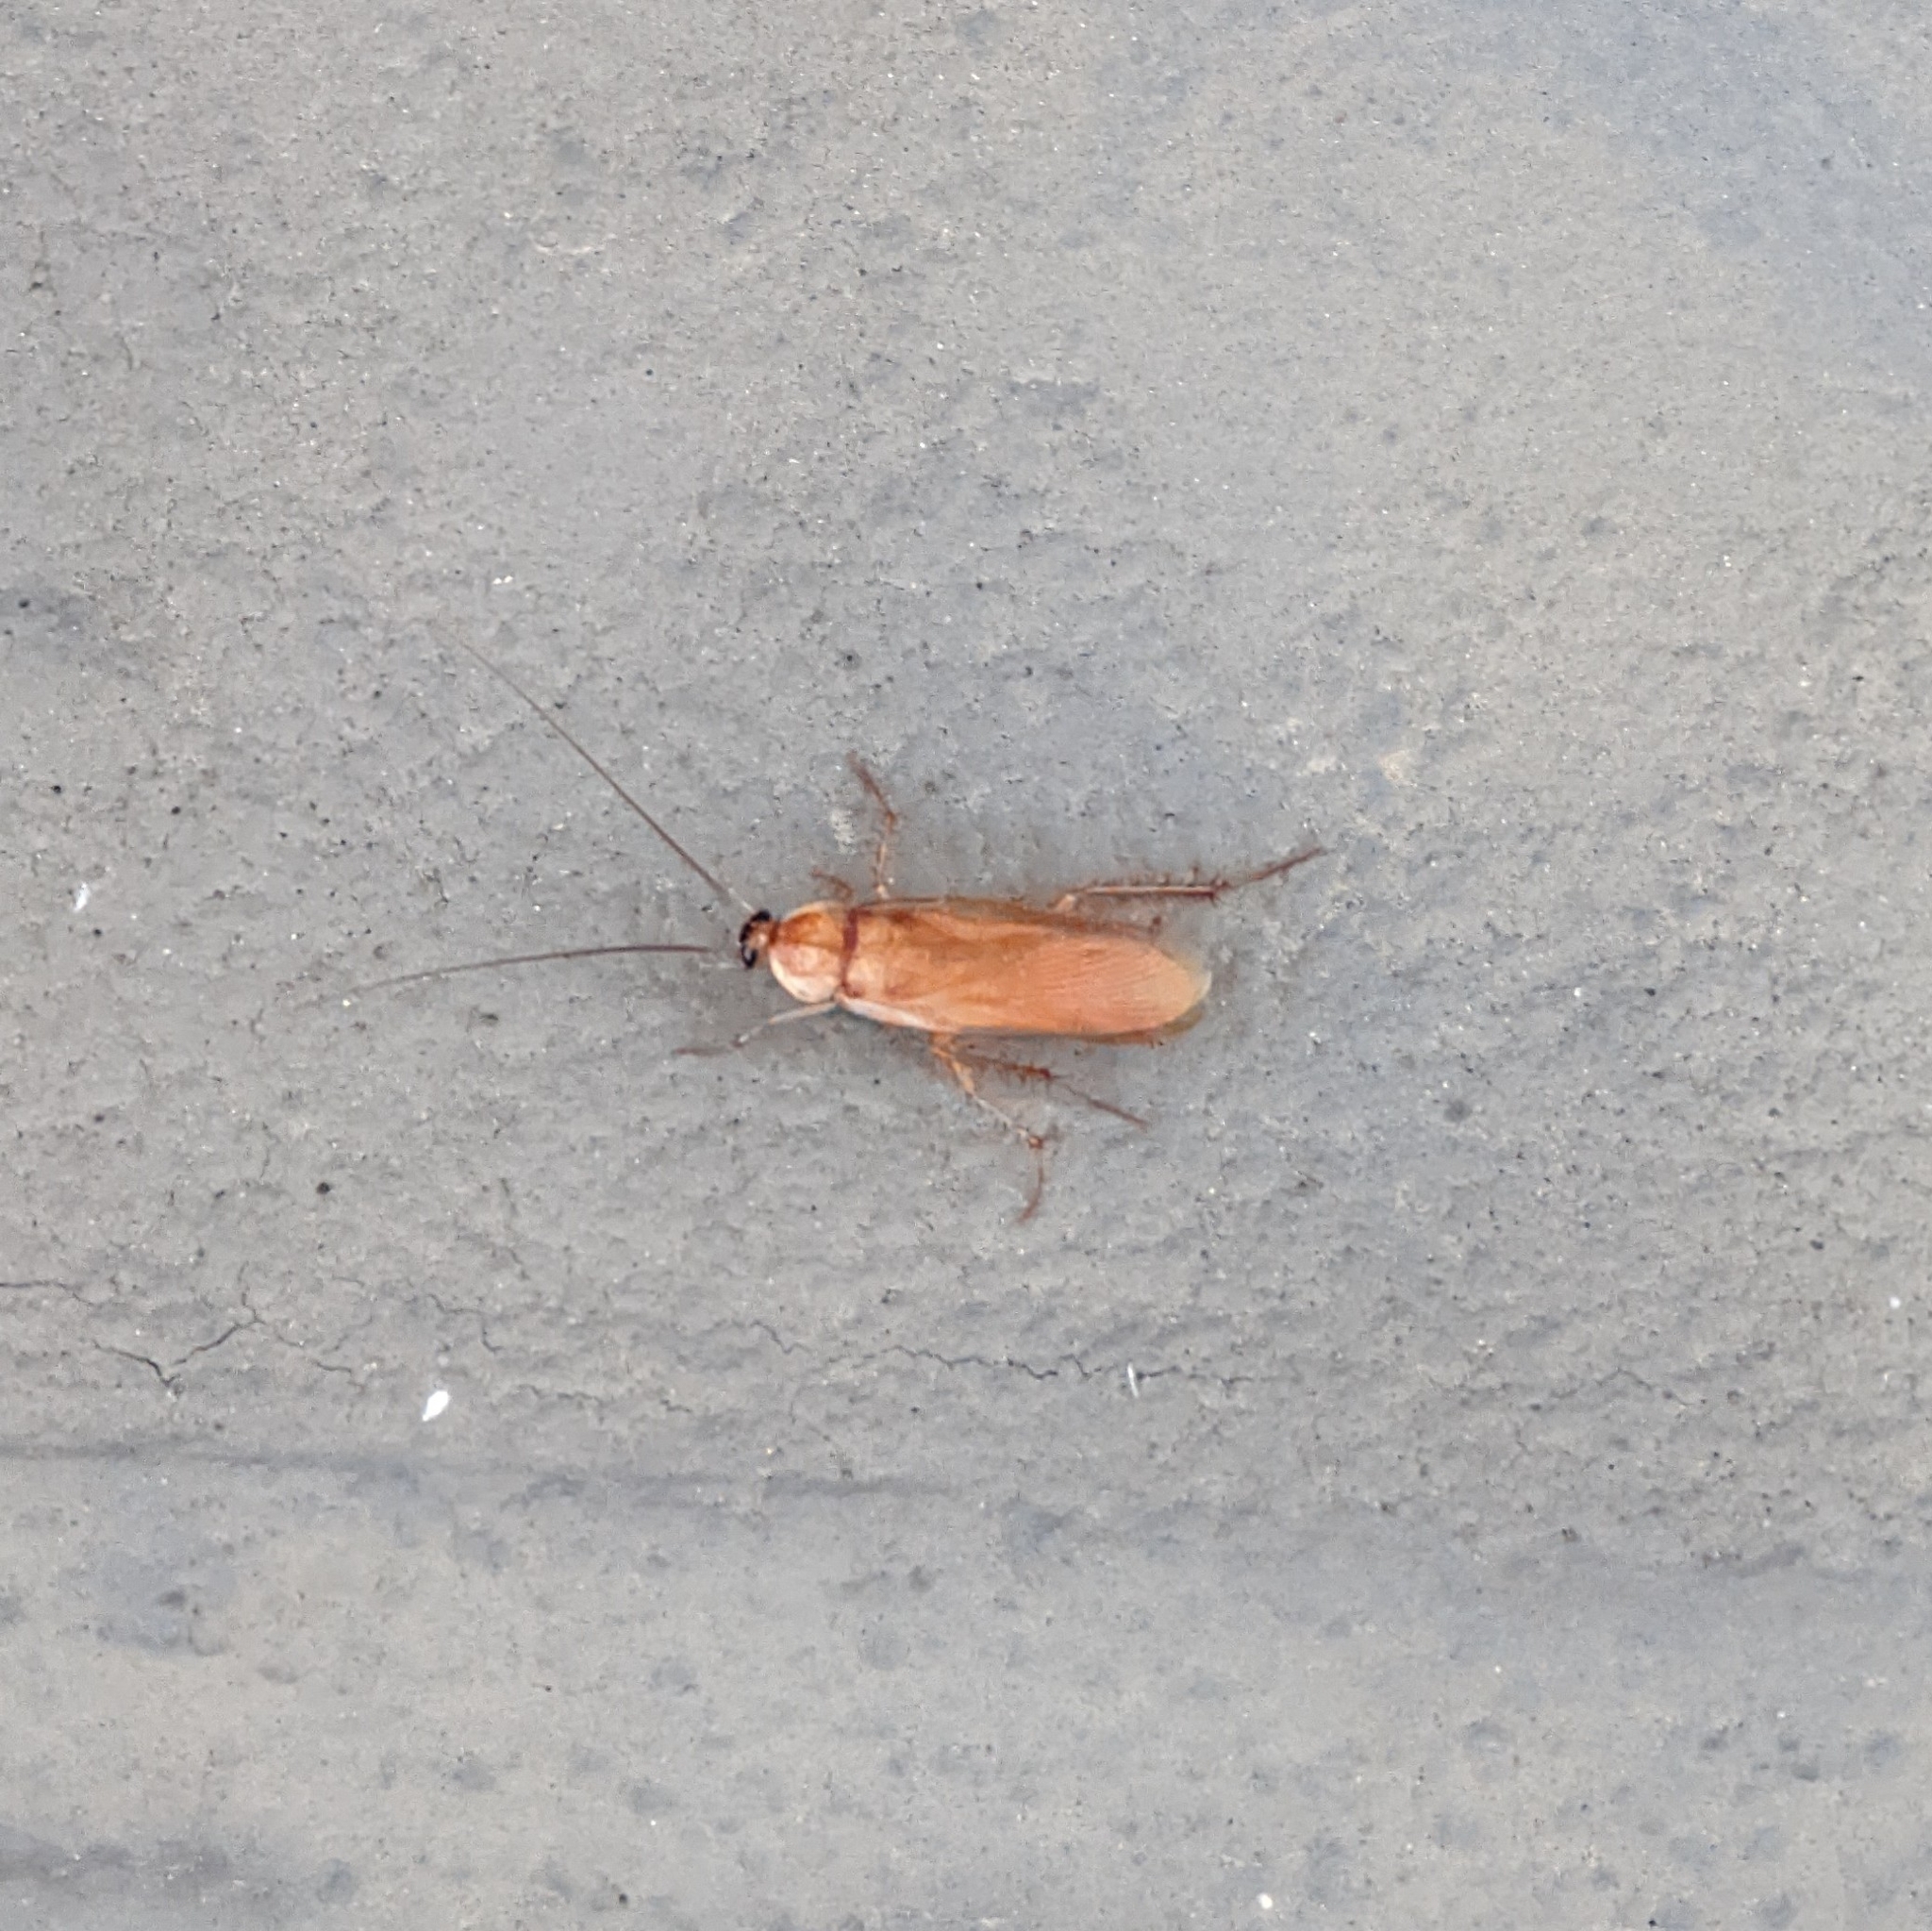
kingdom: Animalia
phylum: Arthropoda
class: Insecta
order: Blattodea
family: Blattidae
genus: Periplaneta
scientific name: Periplaneta lateralis
